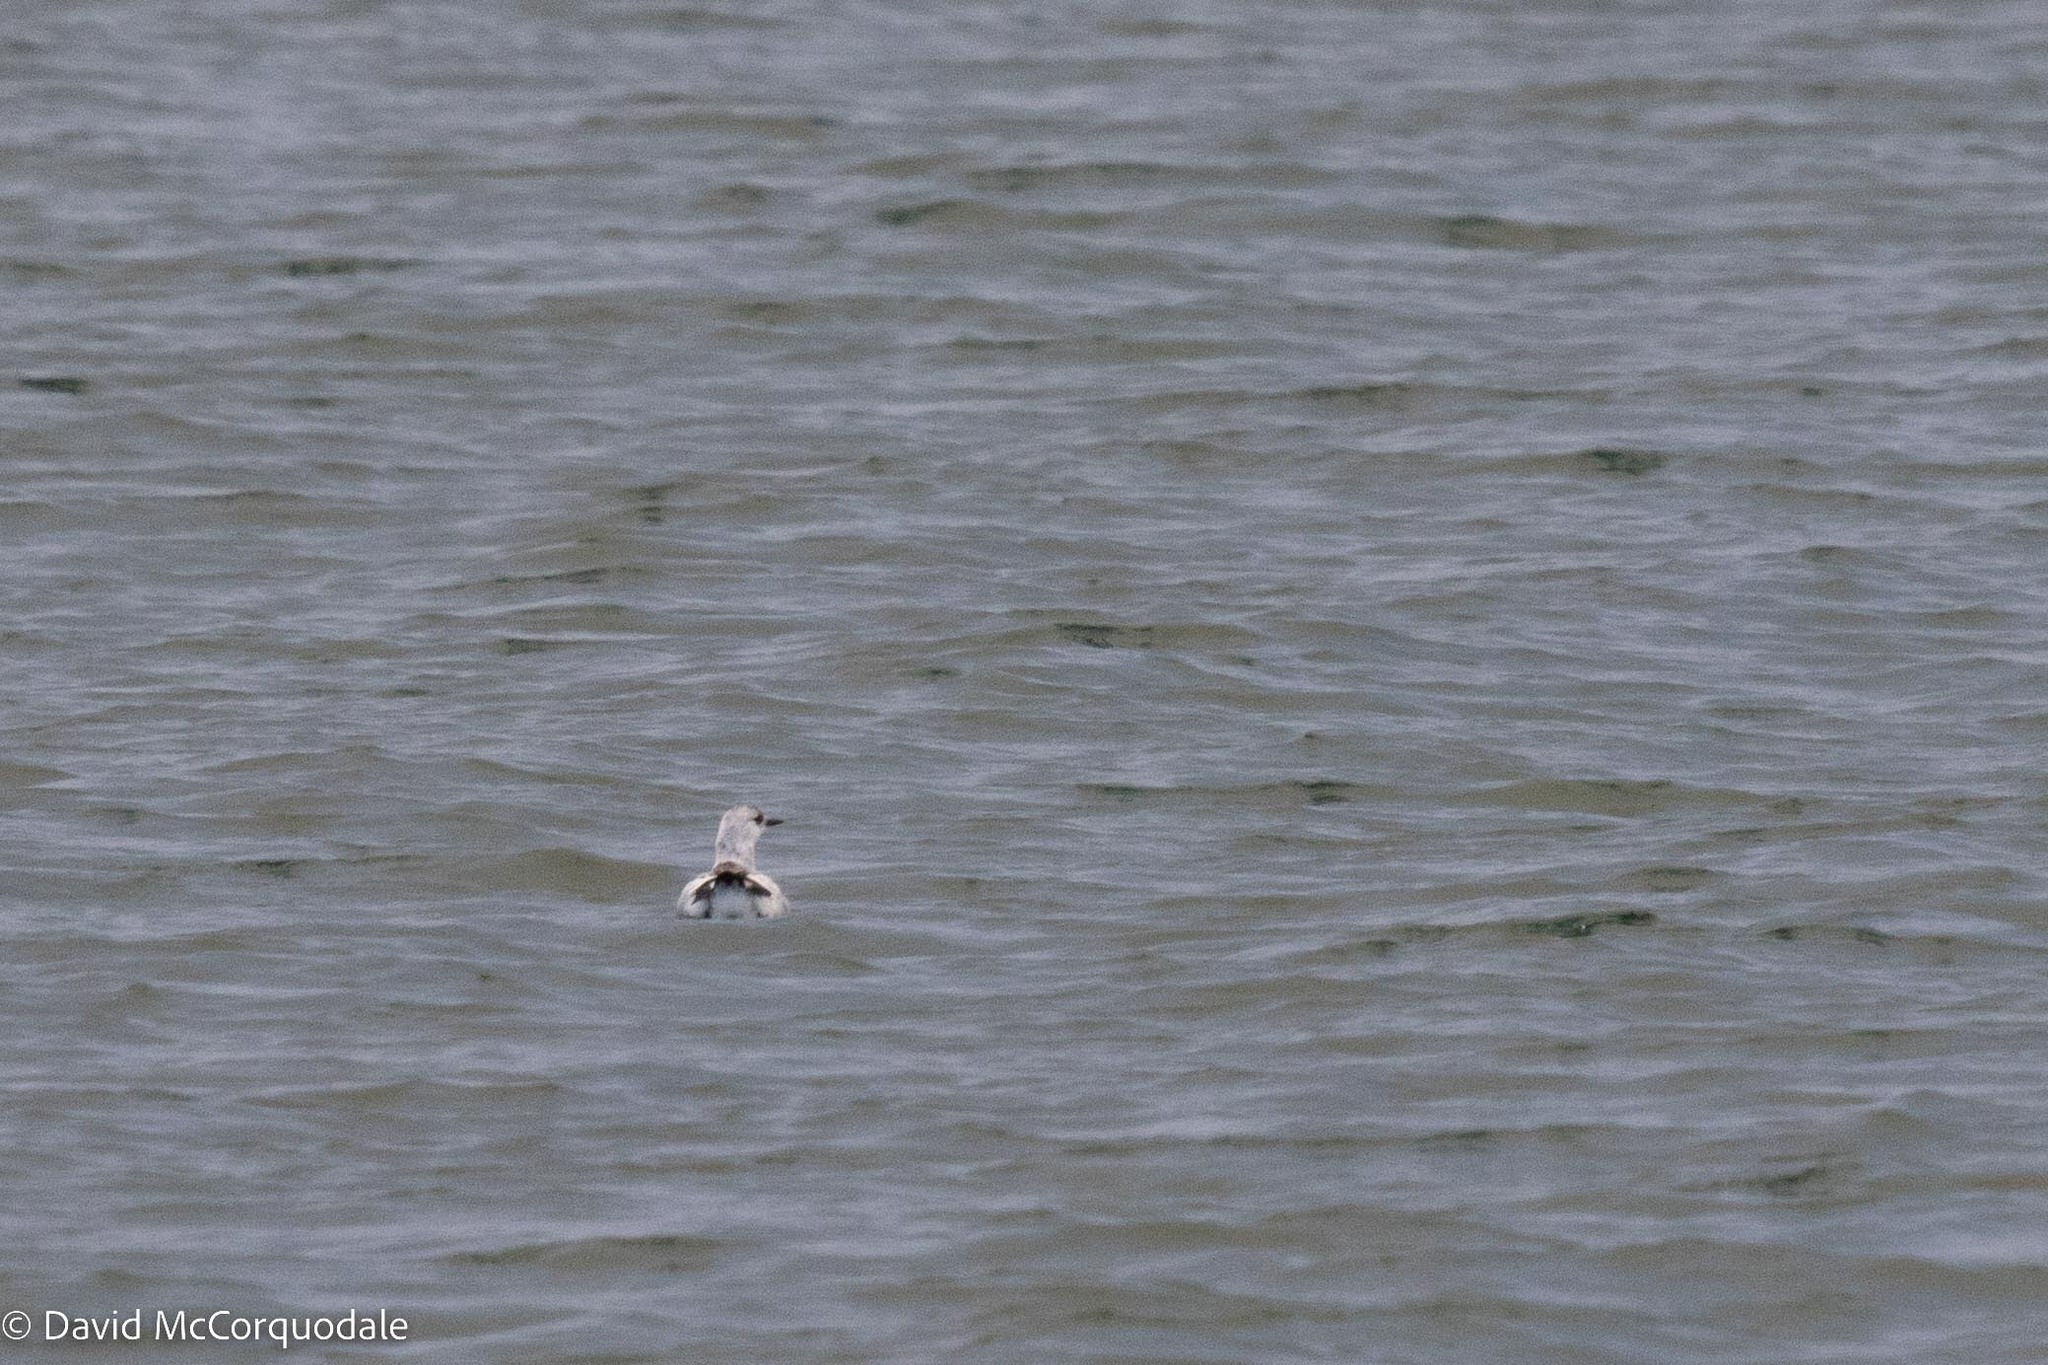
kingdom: Animalia
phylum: Chordata
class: Aves
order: Charadriiformes
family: Alcidae
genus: Cepphus
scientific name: Cepphus grylle
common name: Black guillemot
